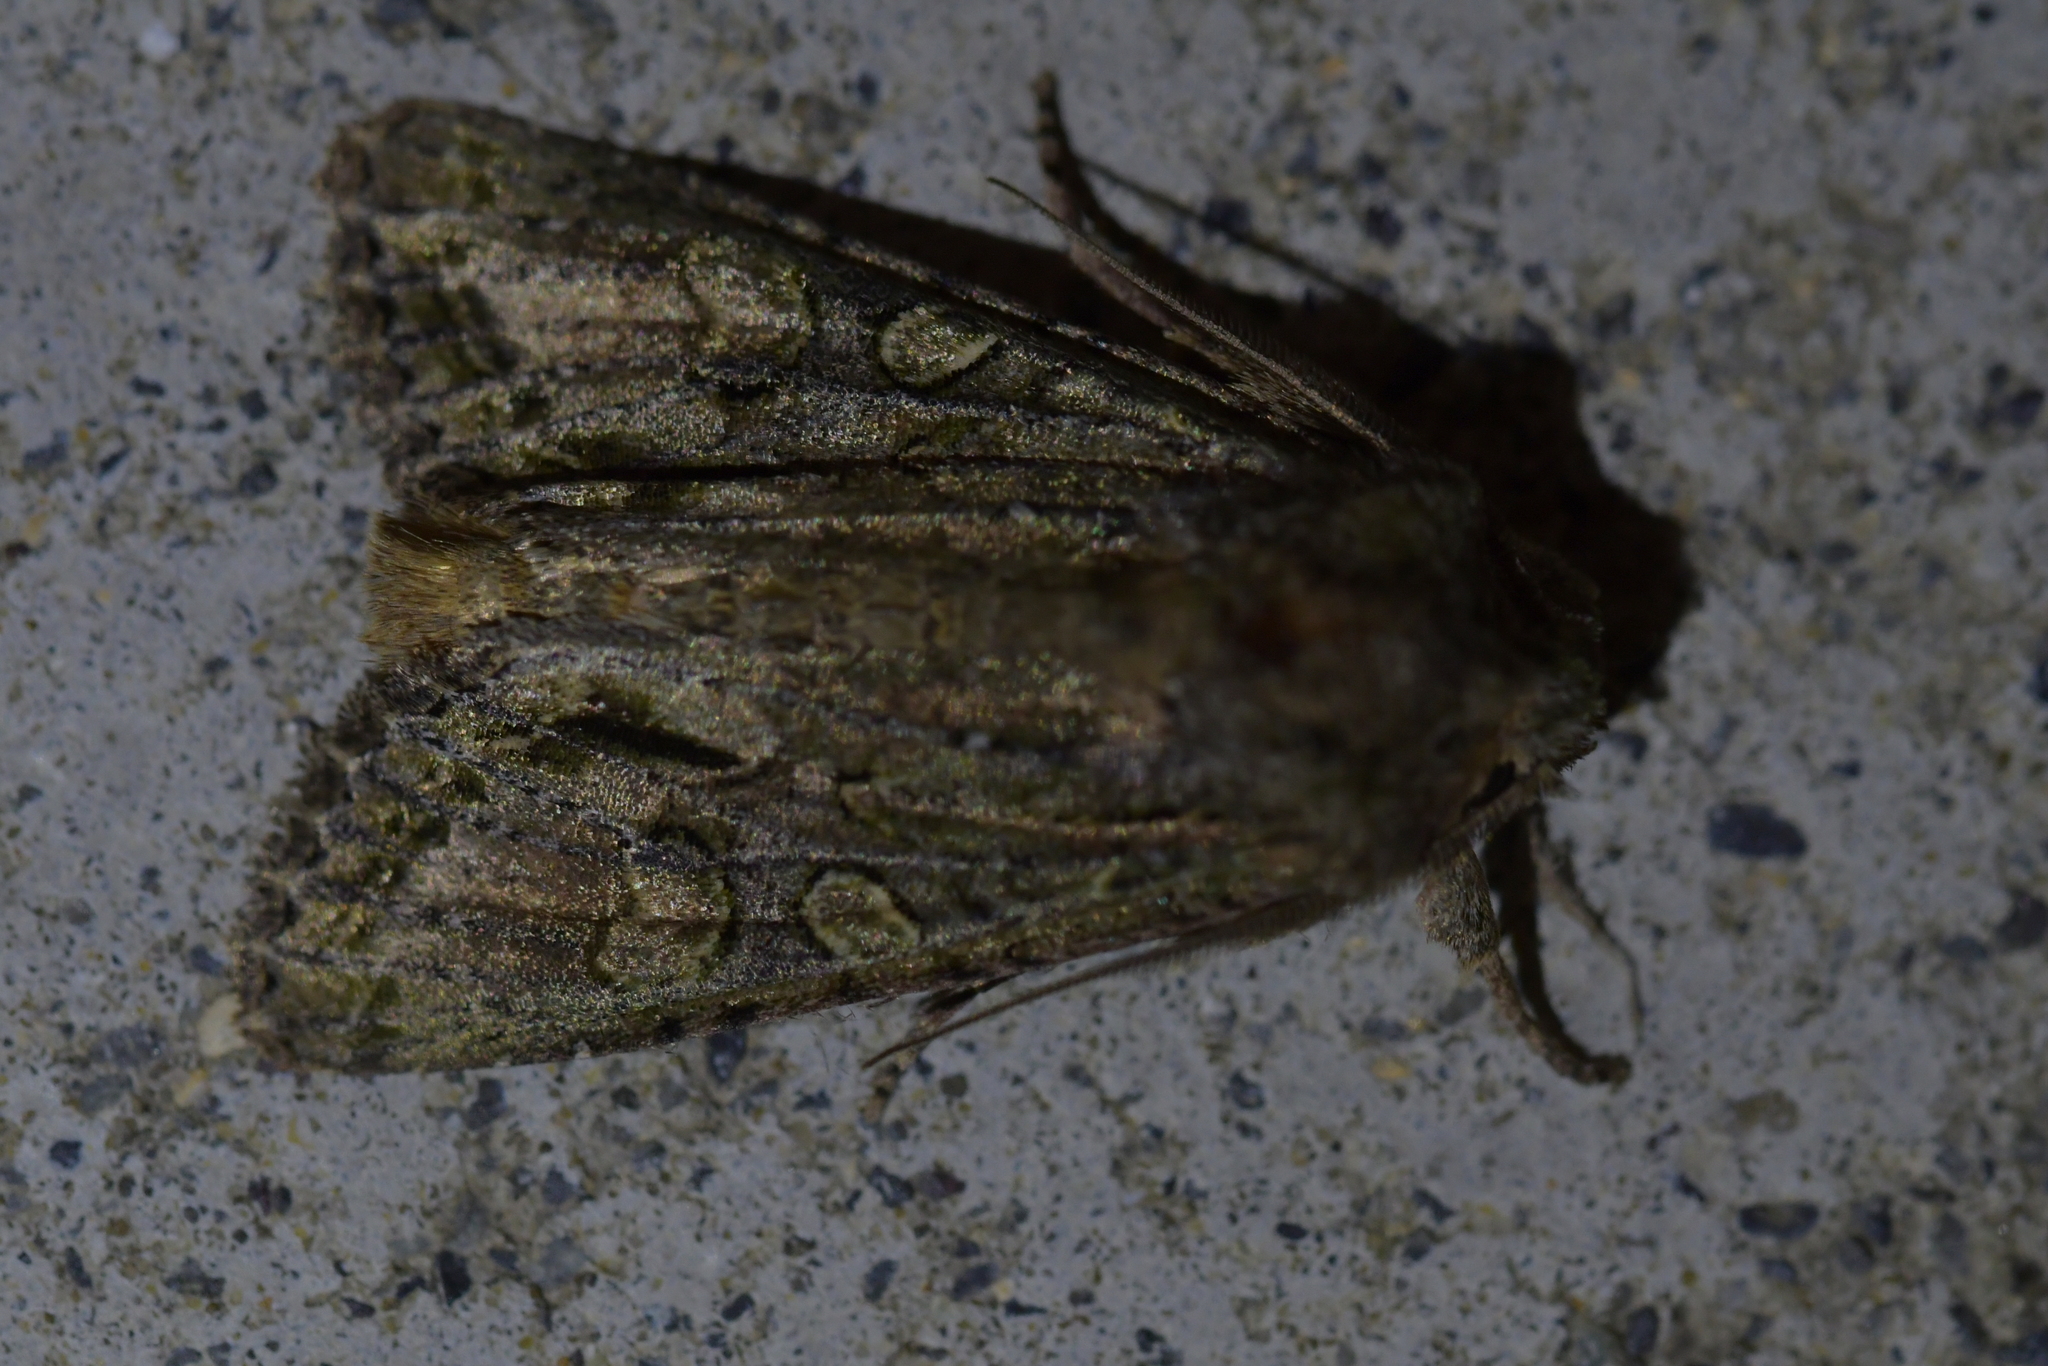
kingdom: Animalia
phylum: Arthropoda
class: Insecta
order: Lepidoptera
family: Noctuidae
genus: Ichneutica
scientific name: Ichneutica mutans
